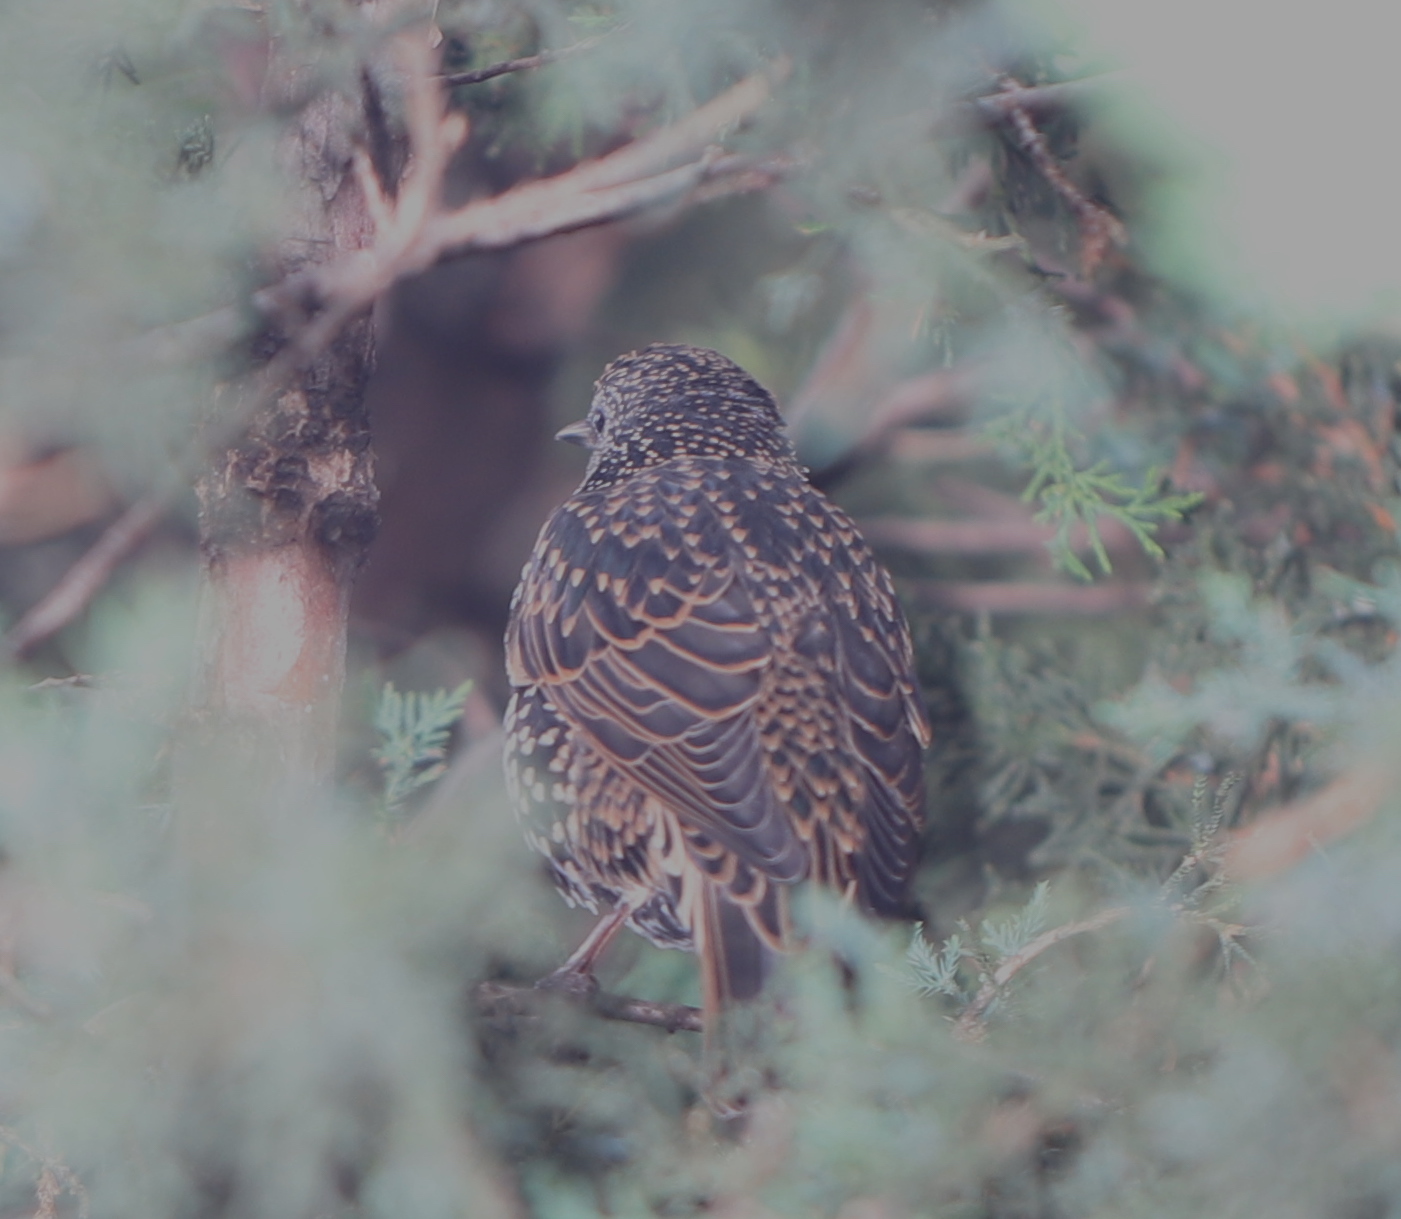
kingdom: Animalia
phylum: Chordata
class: Aves
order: Passeriformes
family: Sturnidae
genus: Sturnus
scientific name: Sturnus vulgaris
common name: Common starling
